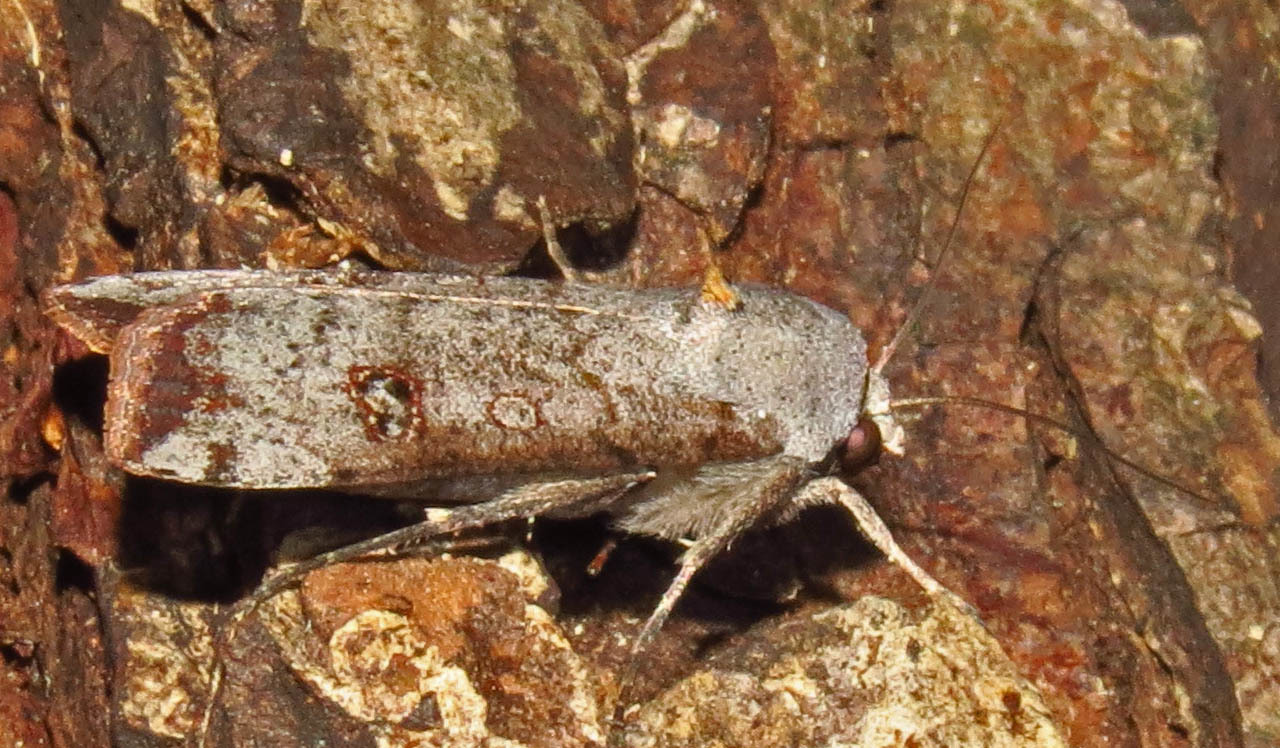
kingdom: Animalia
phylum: Arthropoda
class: Insecta
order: Lepidoptera
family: Noctuidae
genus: Anicla
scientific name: Anicla infecta
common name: Green cutworm
